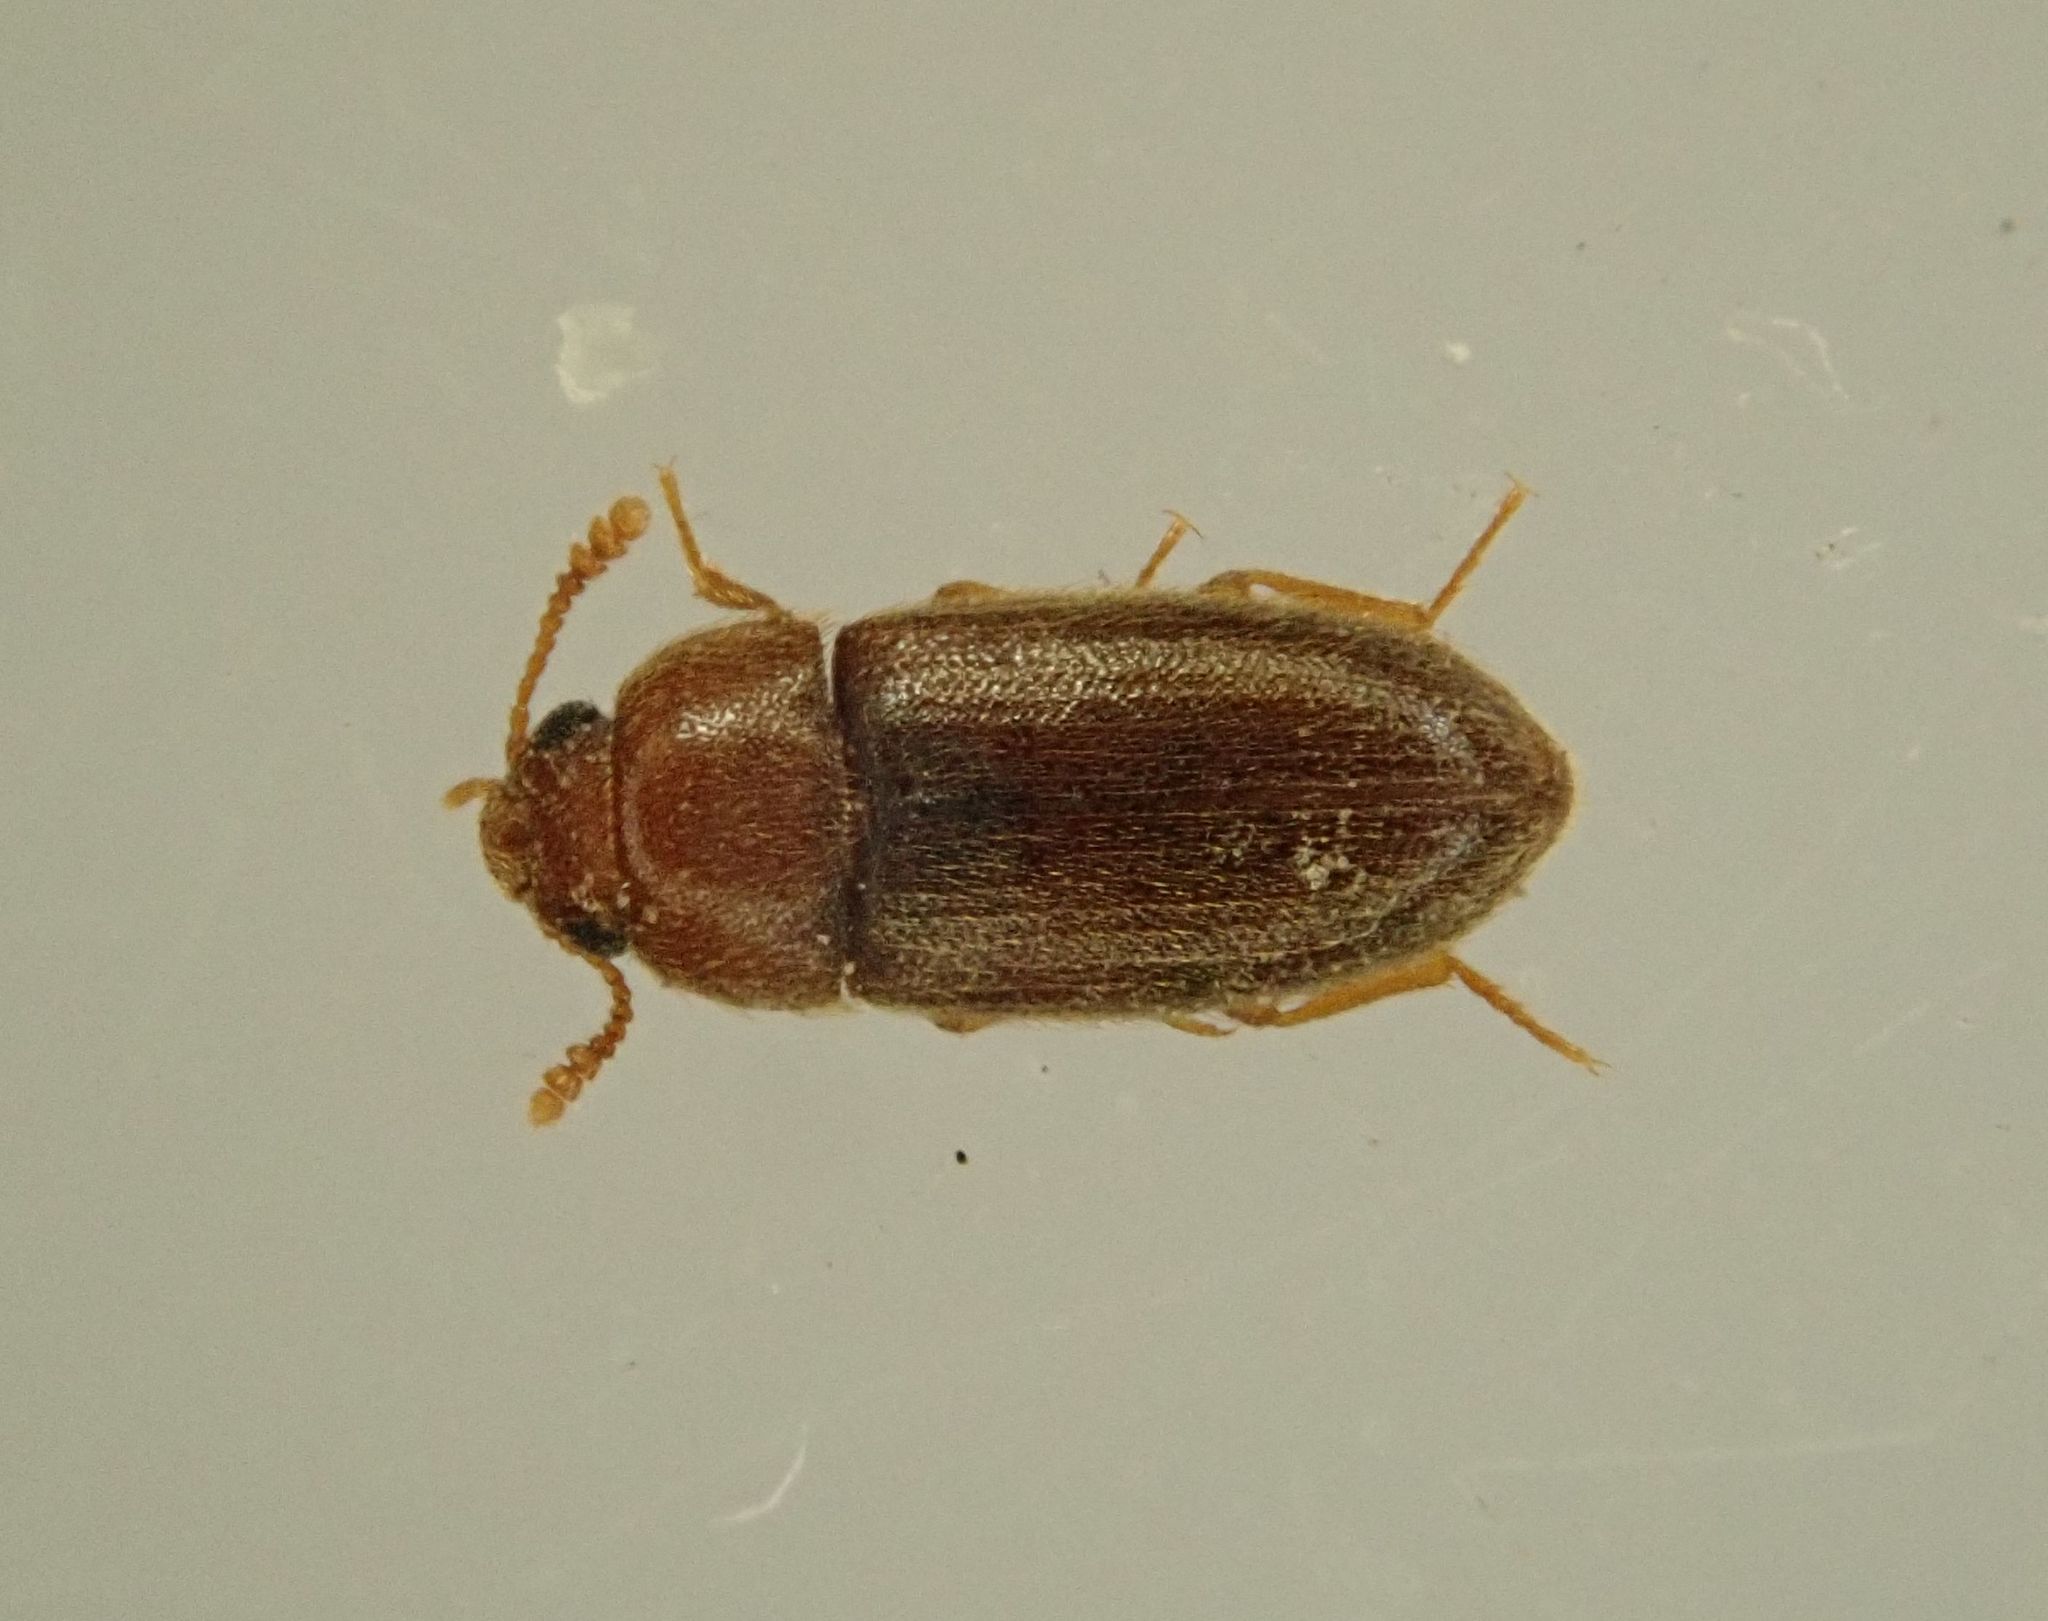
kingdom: Animalia
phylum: Arthropoda
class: Insecta
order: Coleoptera
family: Mycetophagidae
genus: Typhaea
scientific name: Typhaea stercorea
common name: Hairy fungus beetle
